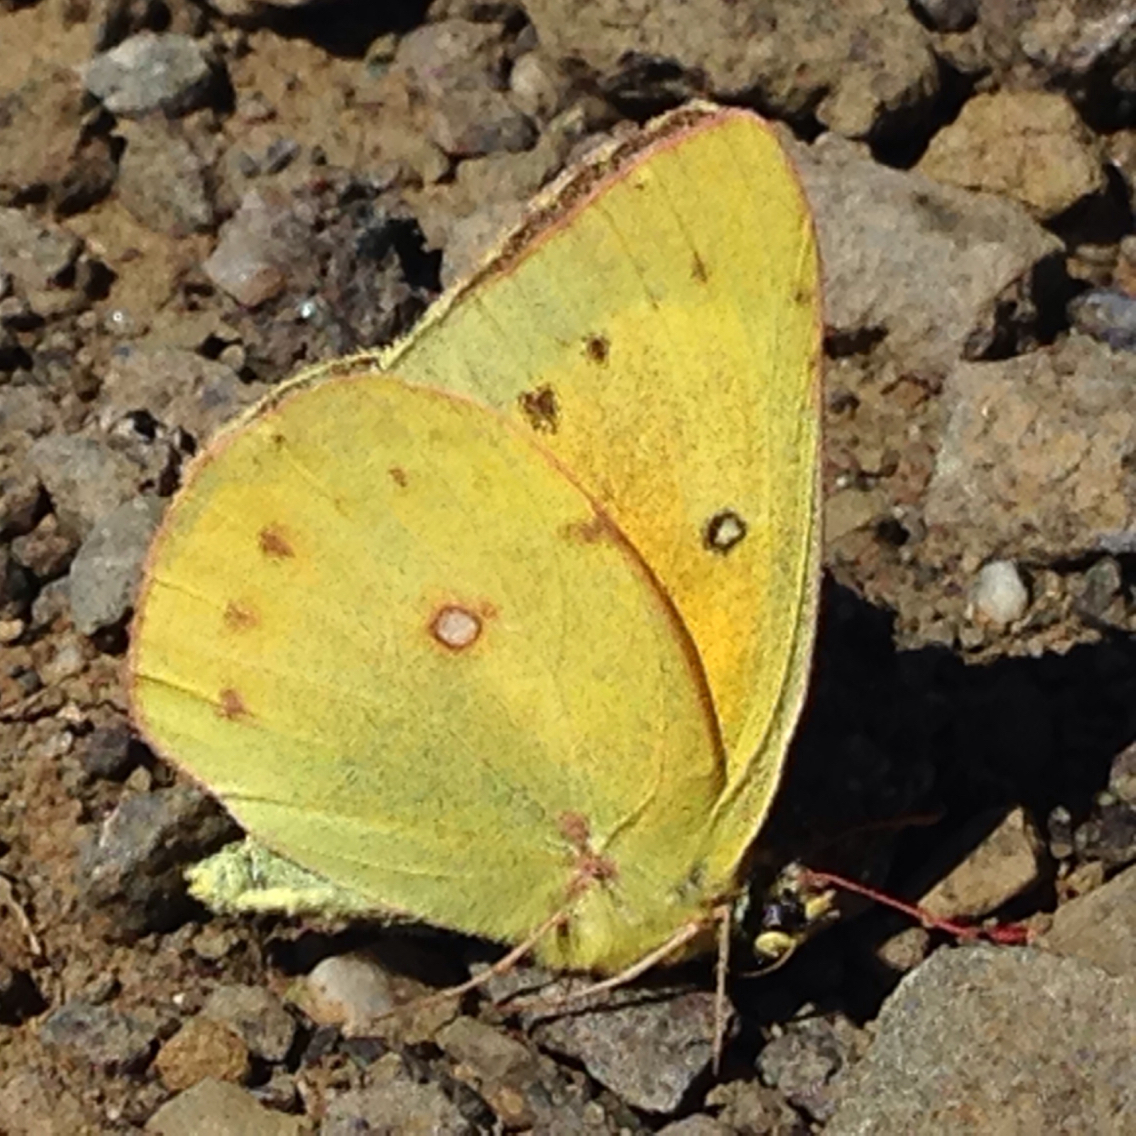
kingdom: Animalia
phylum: Arthropoda
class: Insecta
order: Lepidoptera
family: Pieridae
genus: Colias
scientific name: Colias eurytheme
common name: Alfalfa butterfly
